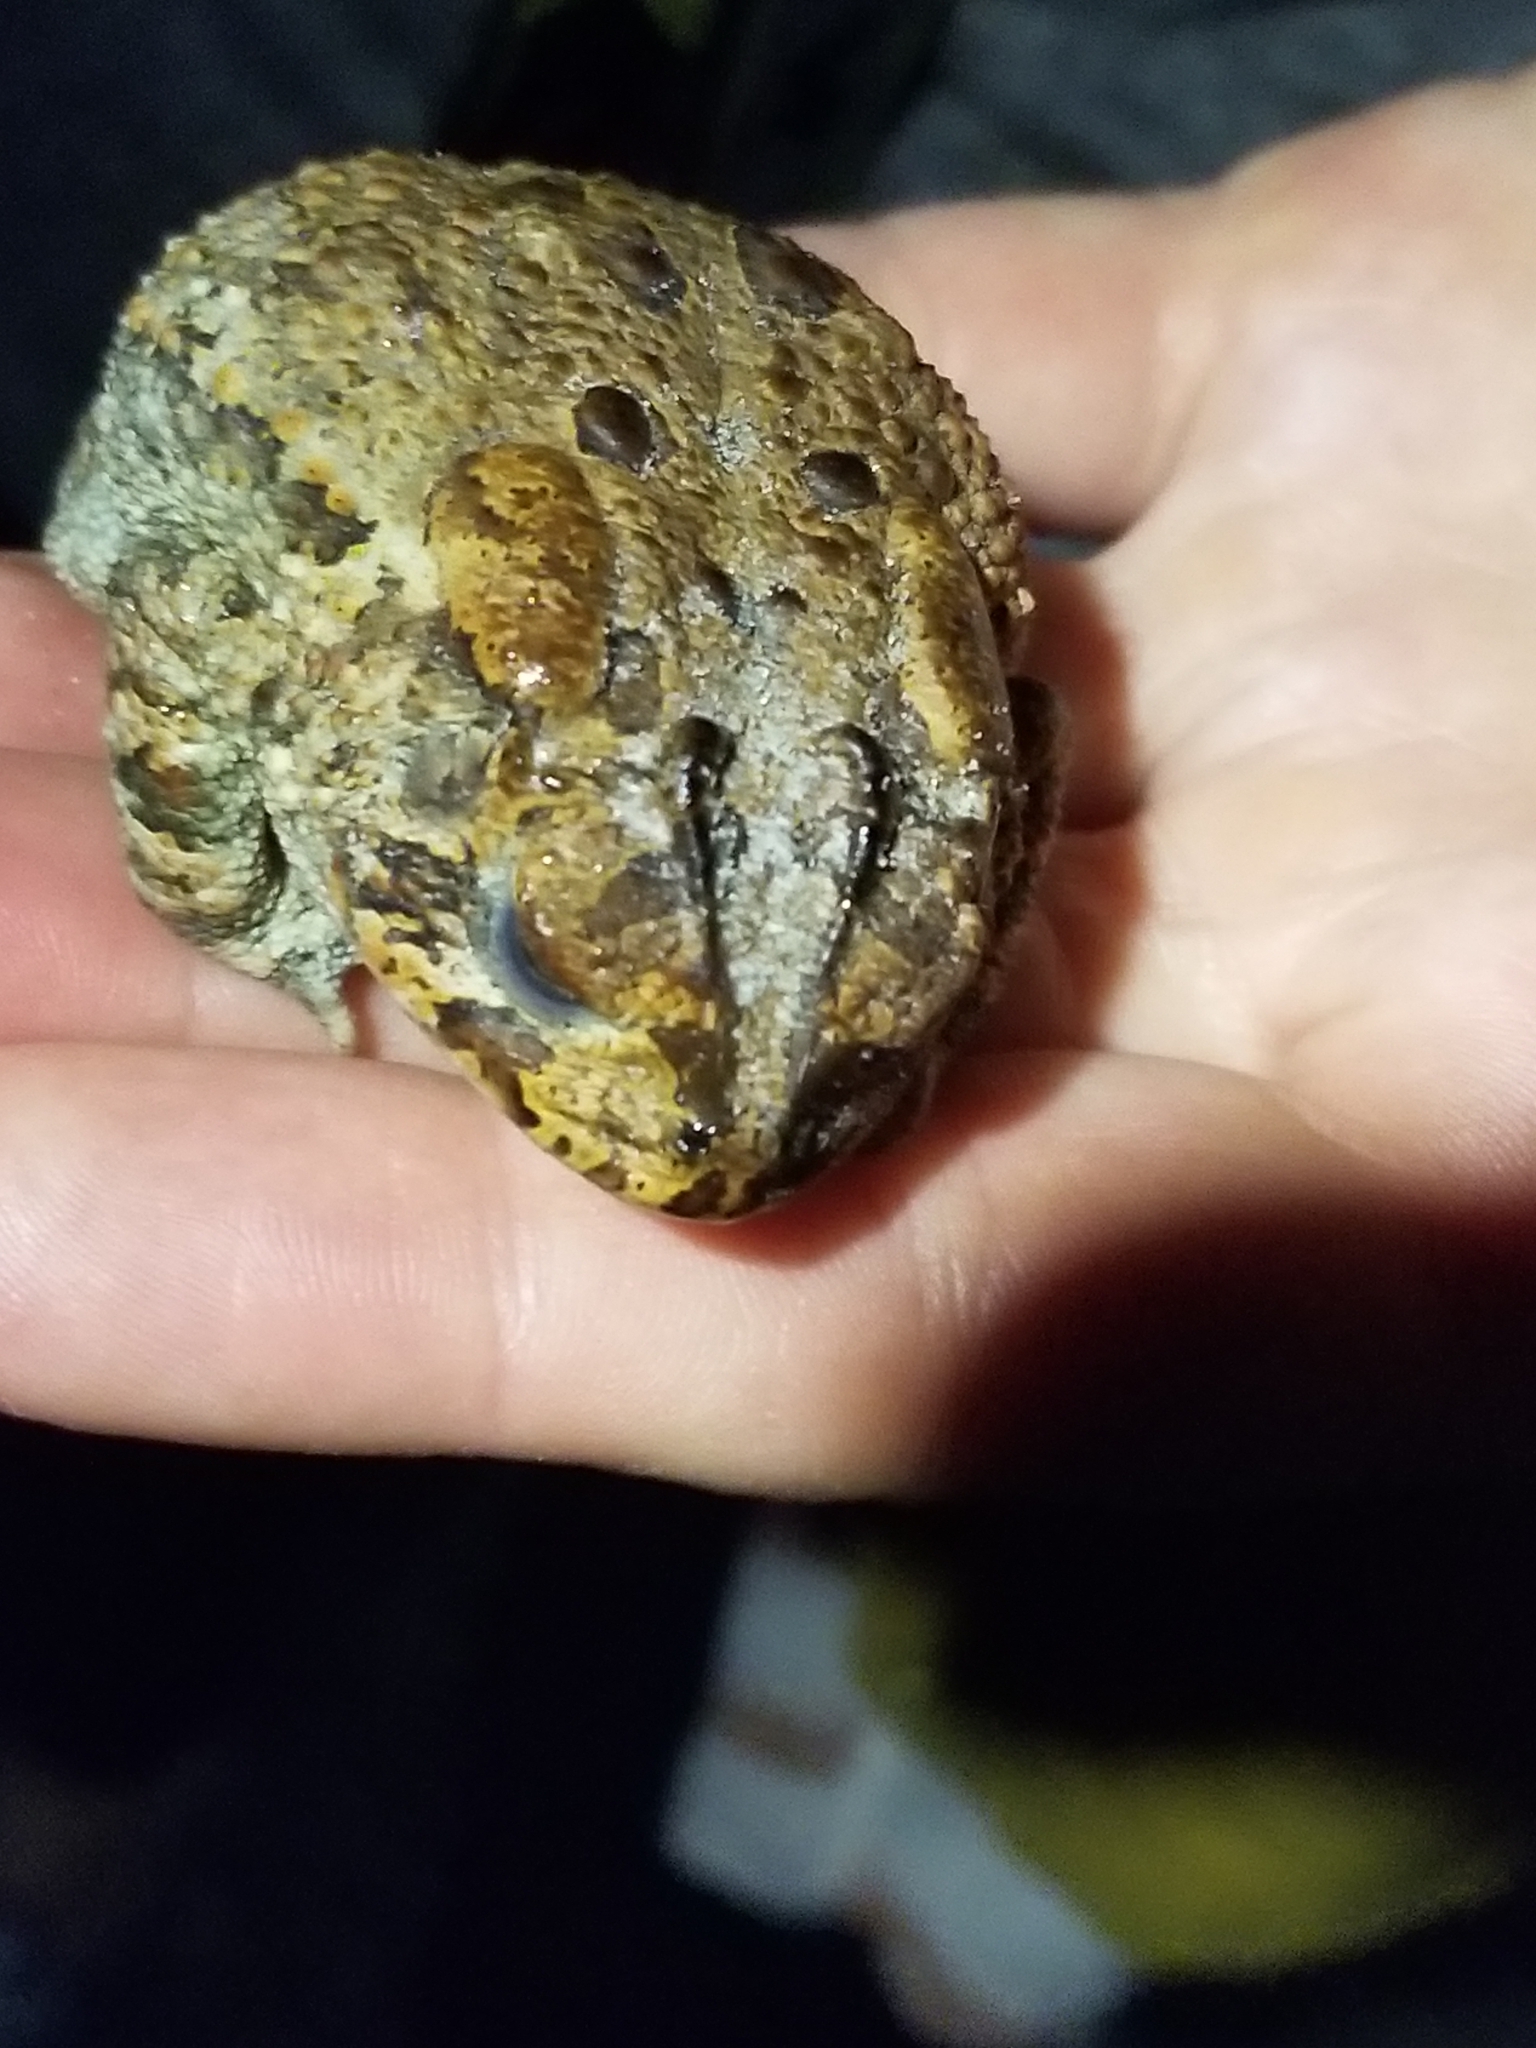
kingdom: Animalia
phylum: Chordata
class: Amphibia
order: Anura
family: Bufonidae
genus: Anaxyrus
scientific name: Anaxyrus terrestris
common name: Southern toad
